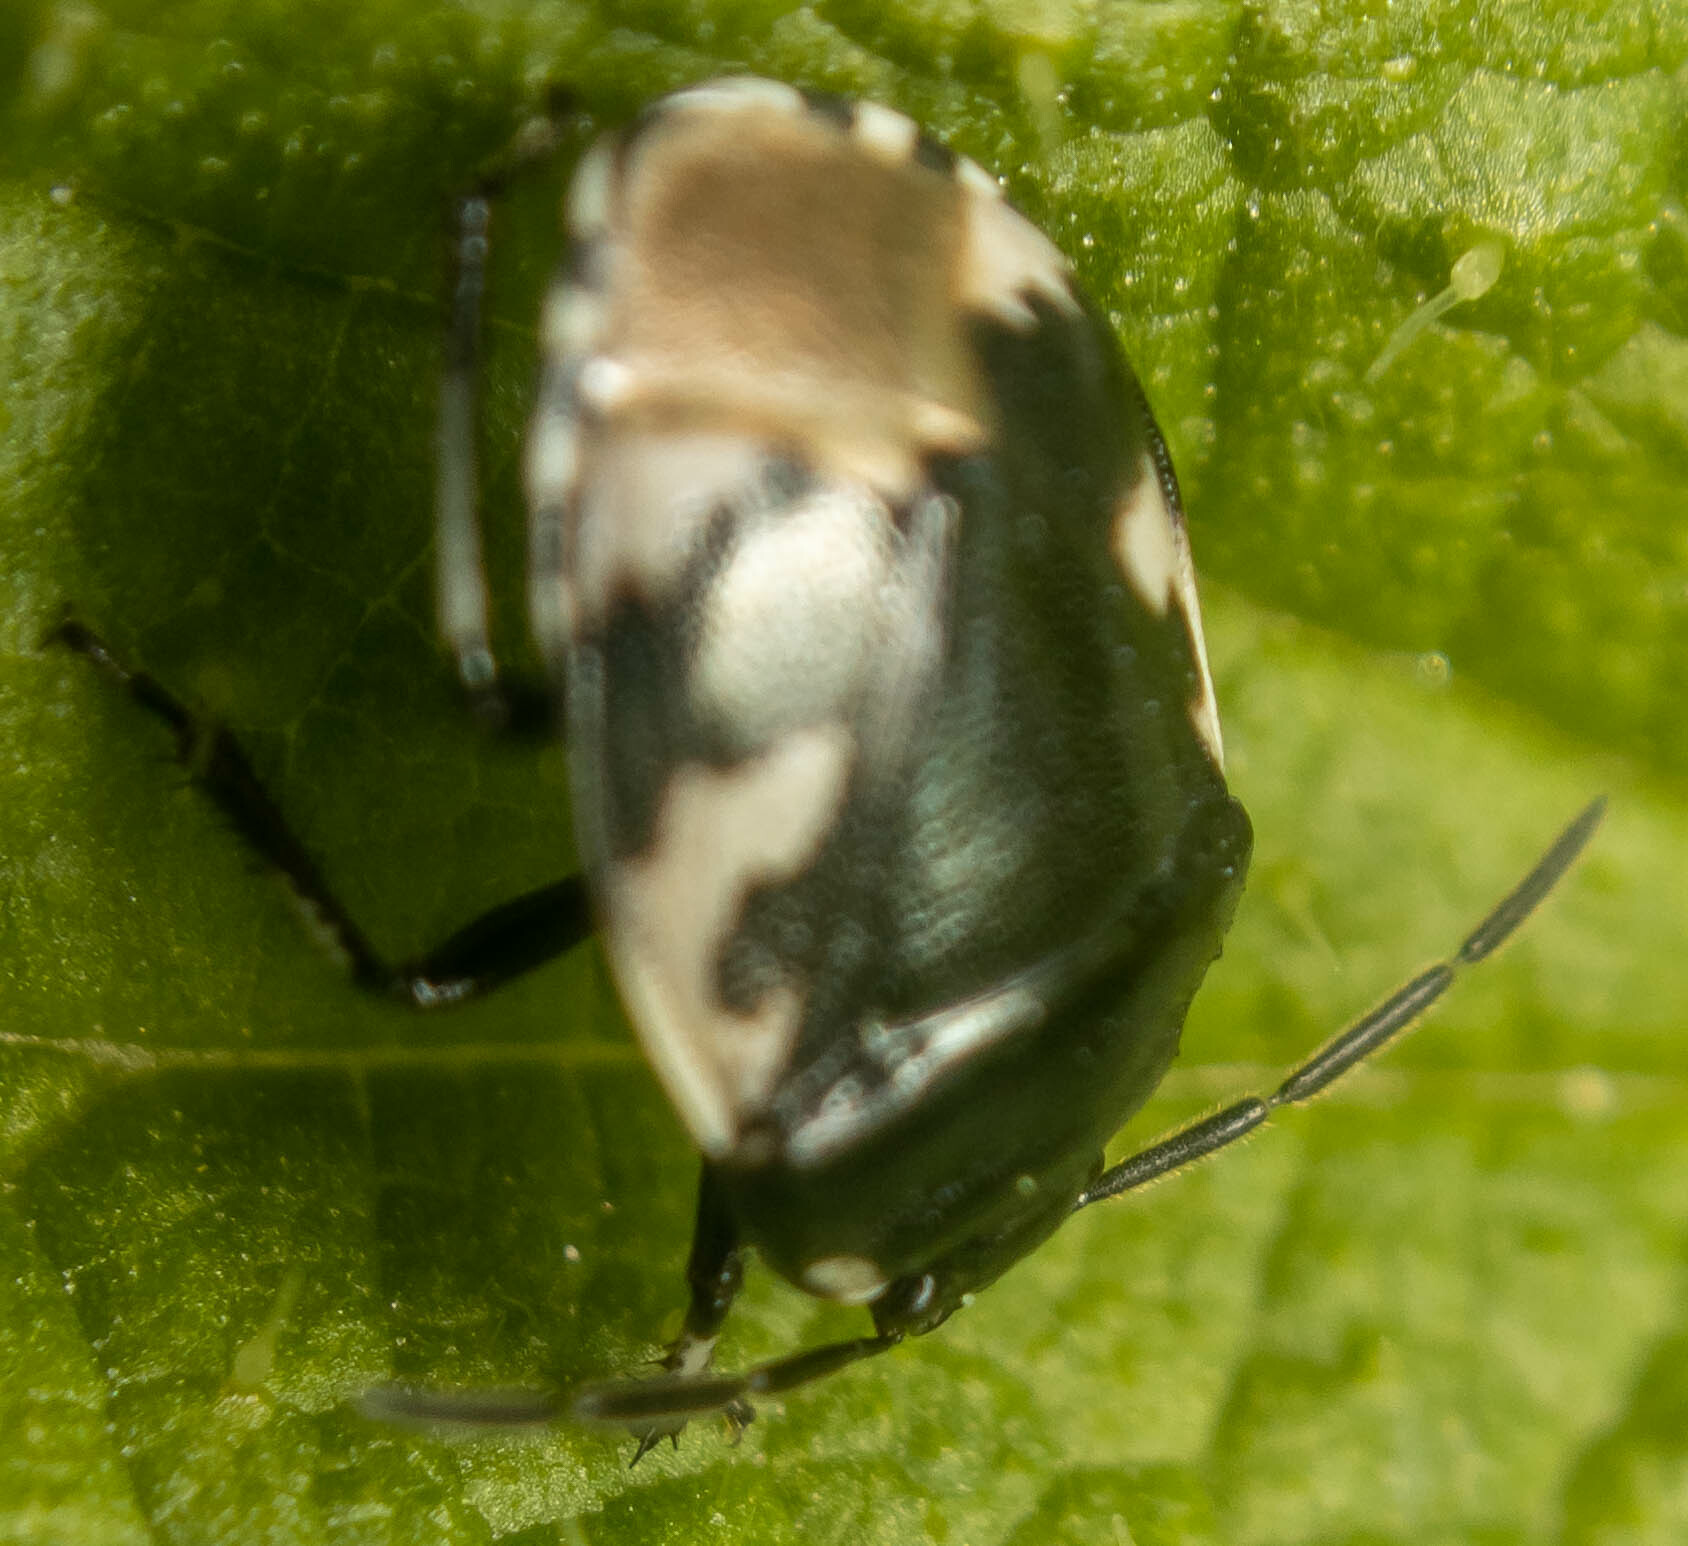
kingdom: Animalia
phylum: Arthropoda
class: Insecta
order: Hemiptera
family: Cydnidae
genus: Tritomegas
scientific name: Tritomegas bicolor
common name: Pied shieldbug
